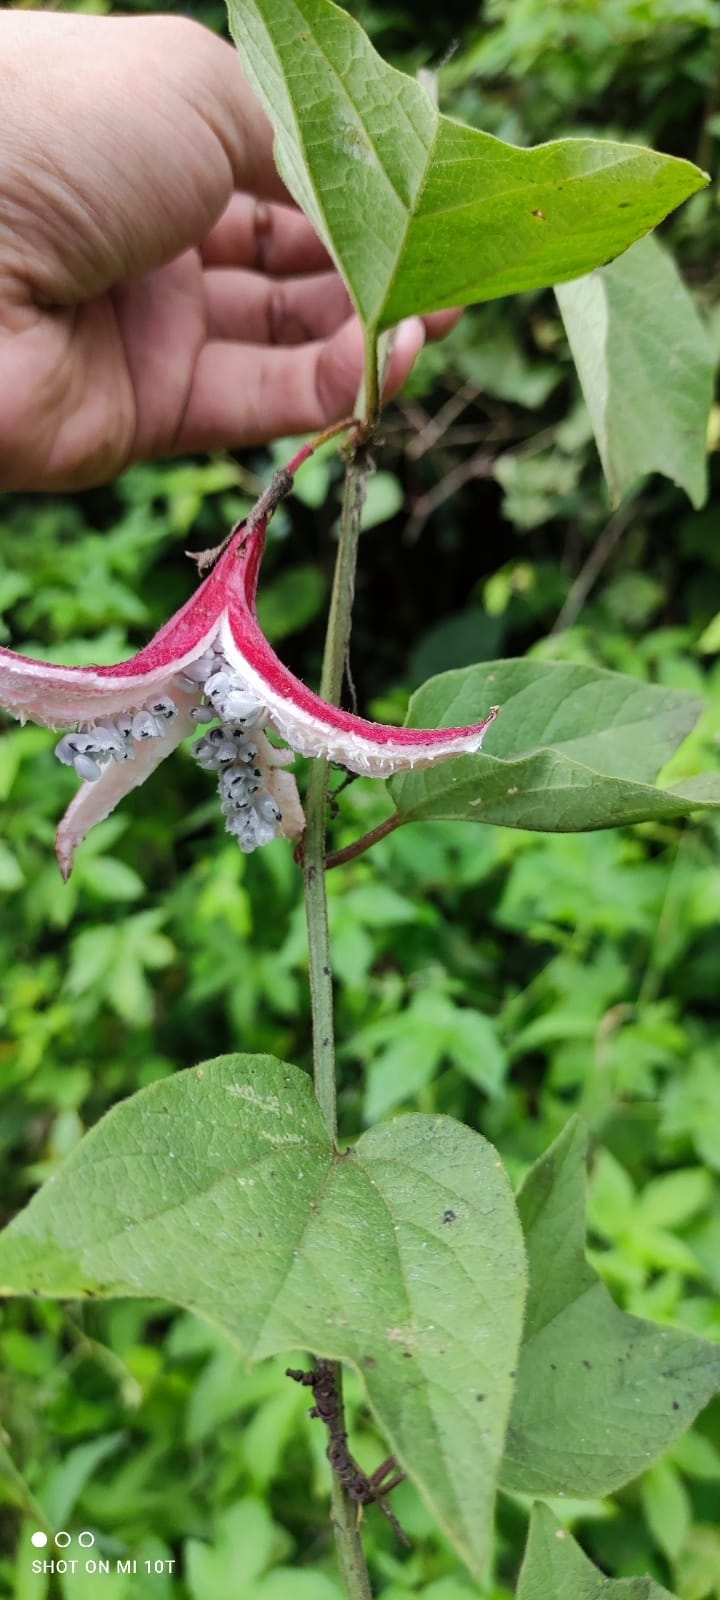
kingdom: Plantae
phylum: Tracheophyta
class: Magnoliopsida
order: Malpighiales
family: Passifloraceae
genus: Passiflora
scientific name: Passiflora cisnana
